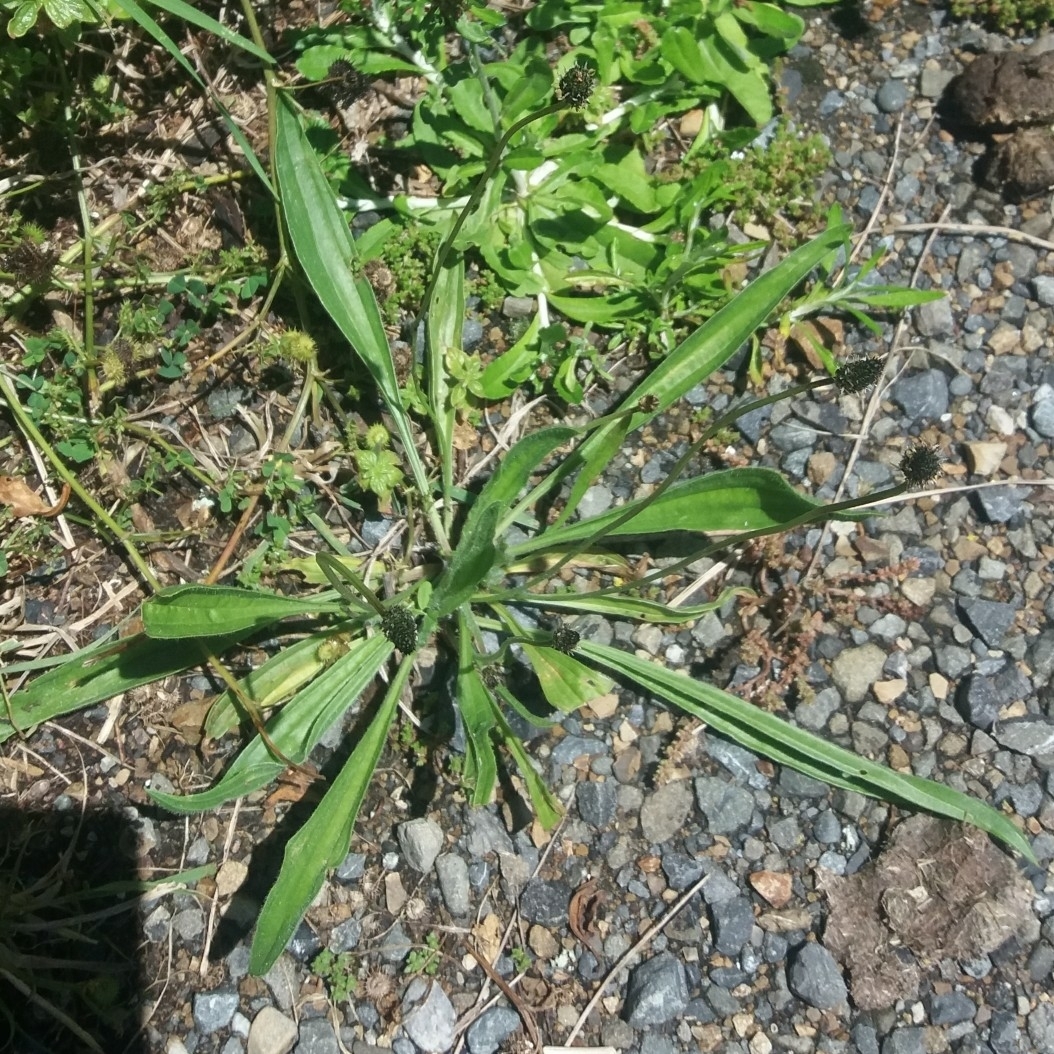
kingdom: Plantae
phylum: Tracheophyta
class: Magnoliopsida
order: Lamiales
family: Plantaginaceae
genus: Plantago
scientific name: Plantago lanceolata
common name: Ribwort plantain
